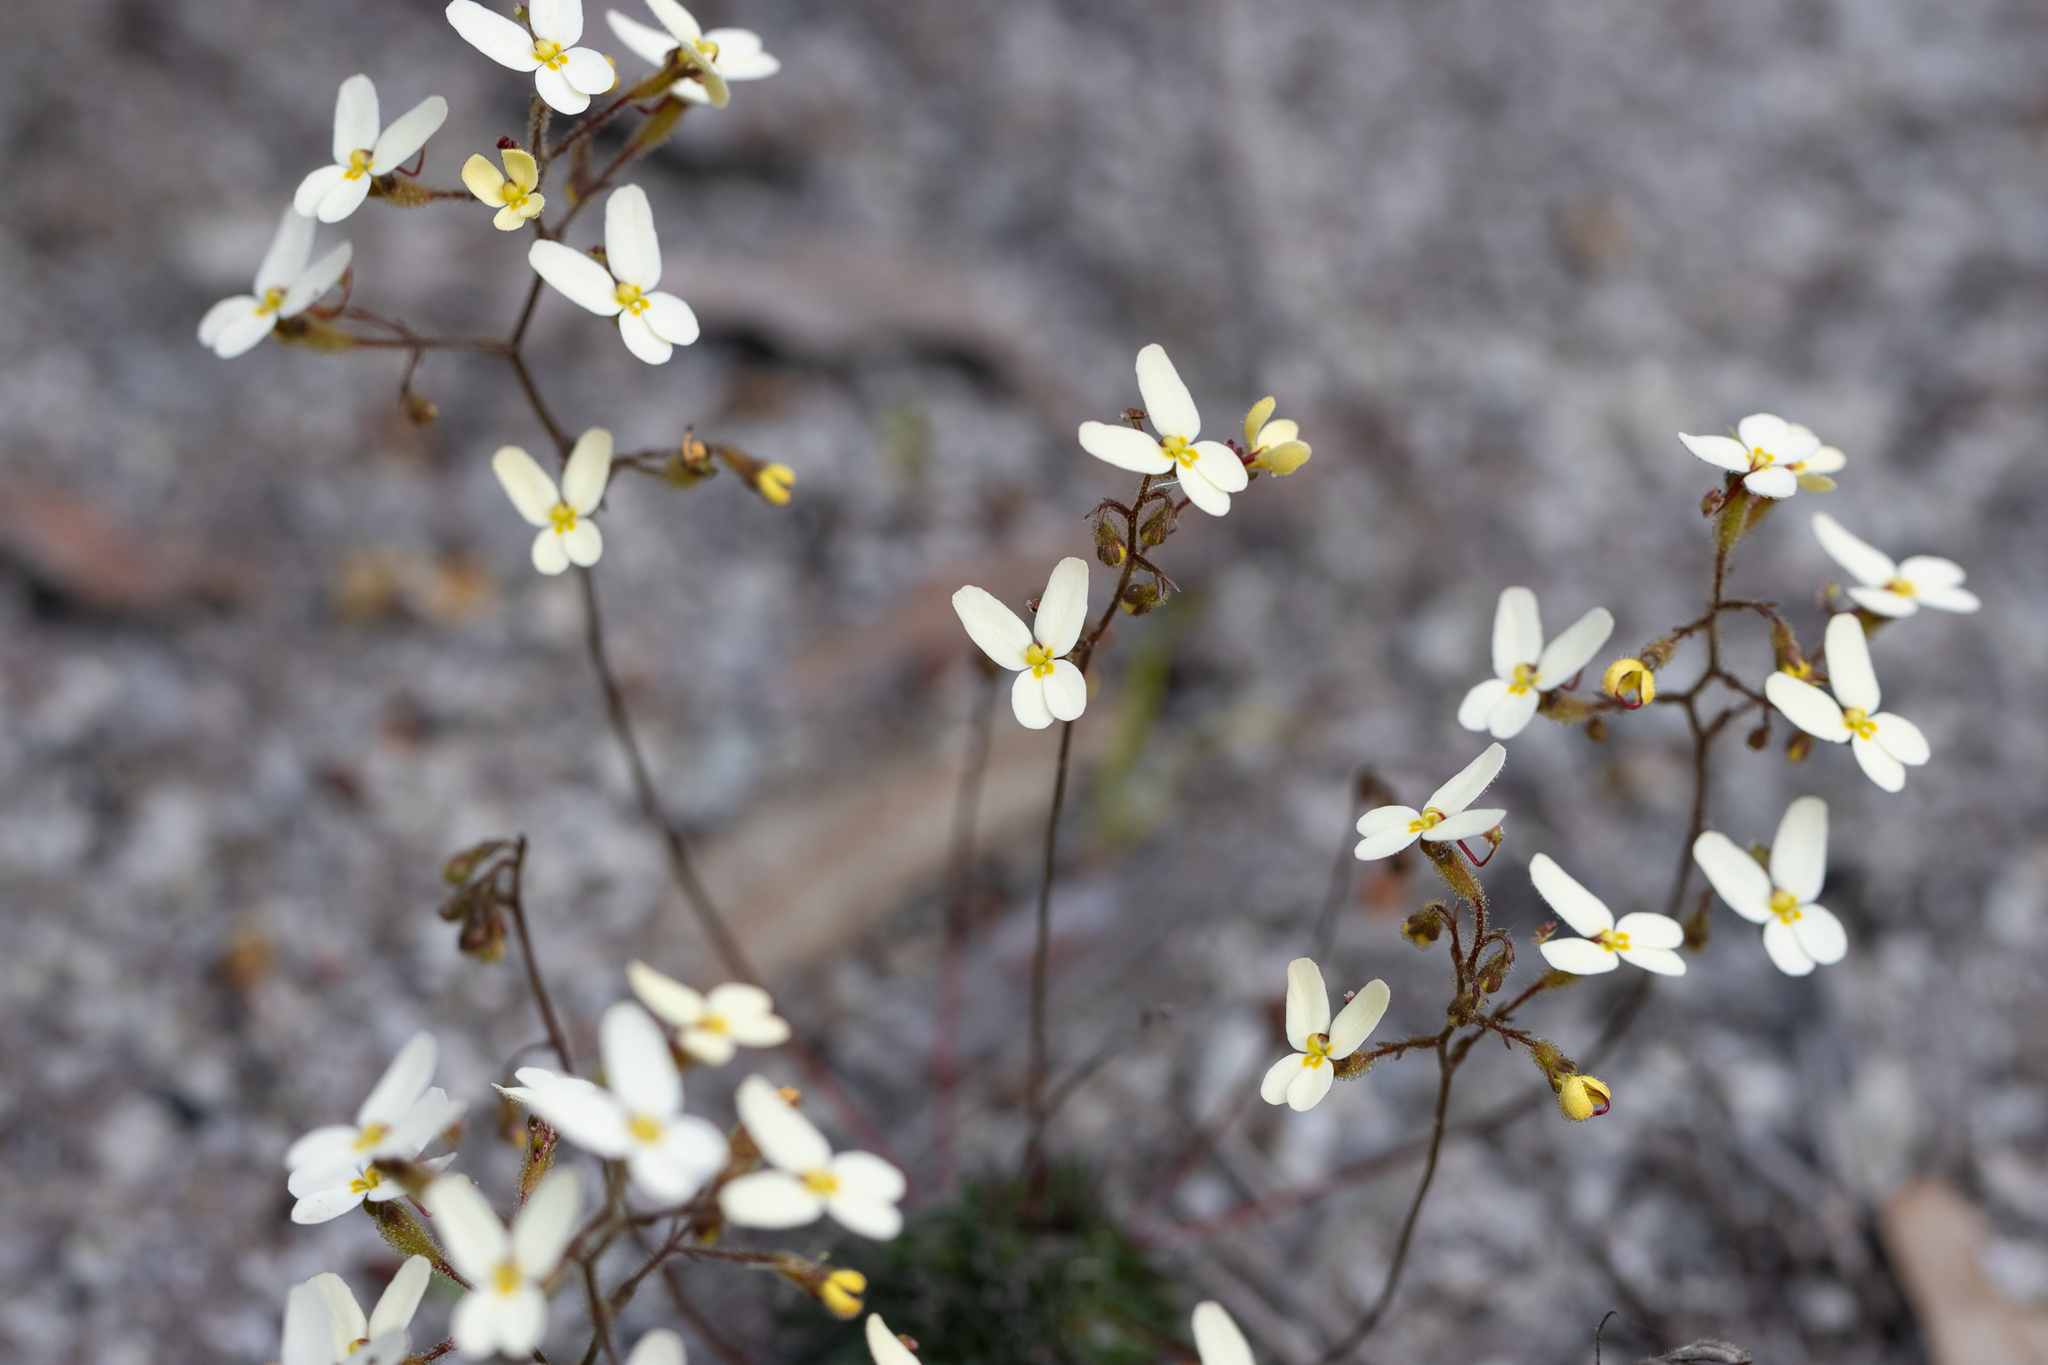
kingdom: Plantae
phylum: Tracheophyta
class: Magnoliopsida
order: Asterales
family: Stylidiaceae
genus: Stylidium
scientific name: Stylidium piliferum
